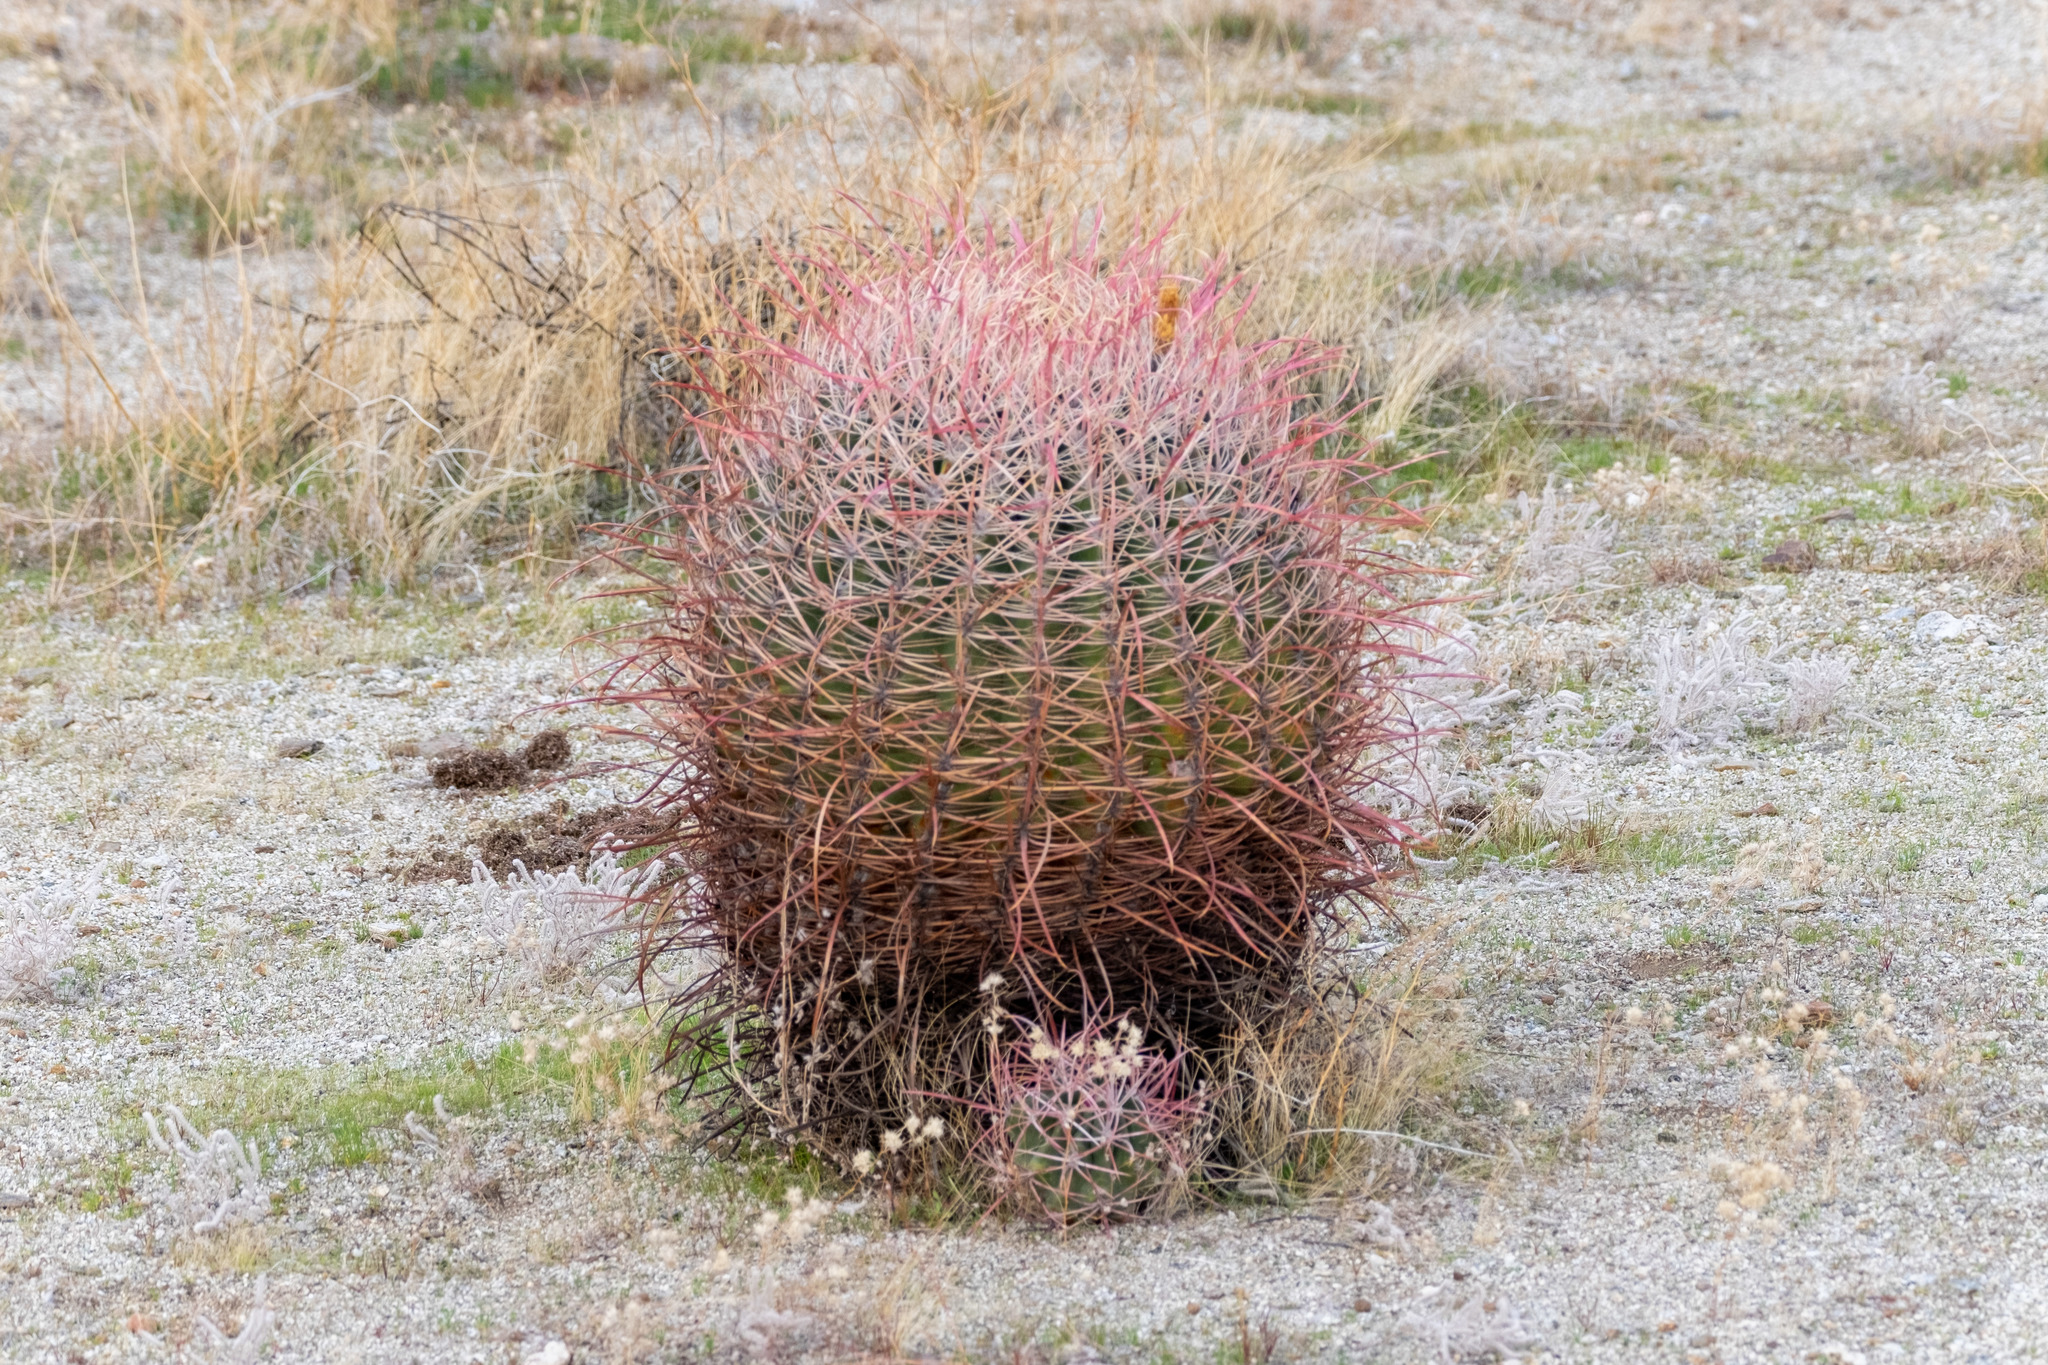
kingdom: Plantae
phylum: Tracheophyta
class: Magnoliopsida
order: Caryophyllales
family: Cactaceae
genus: Ferocactus
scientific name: Ferocactus cylindraceus
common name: California barrel cactus
